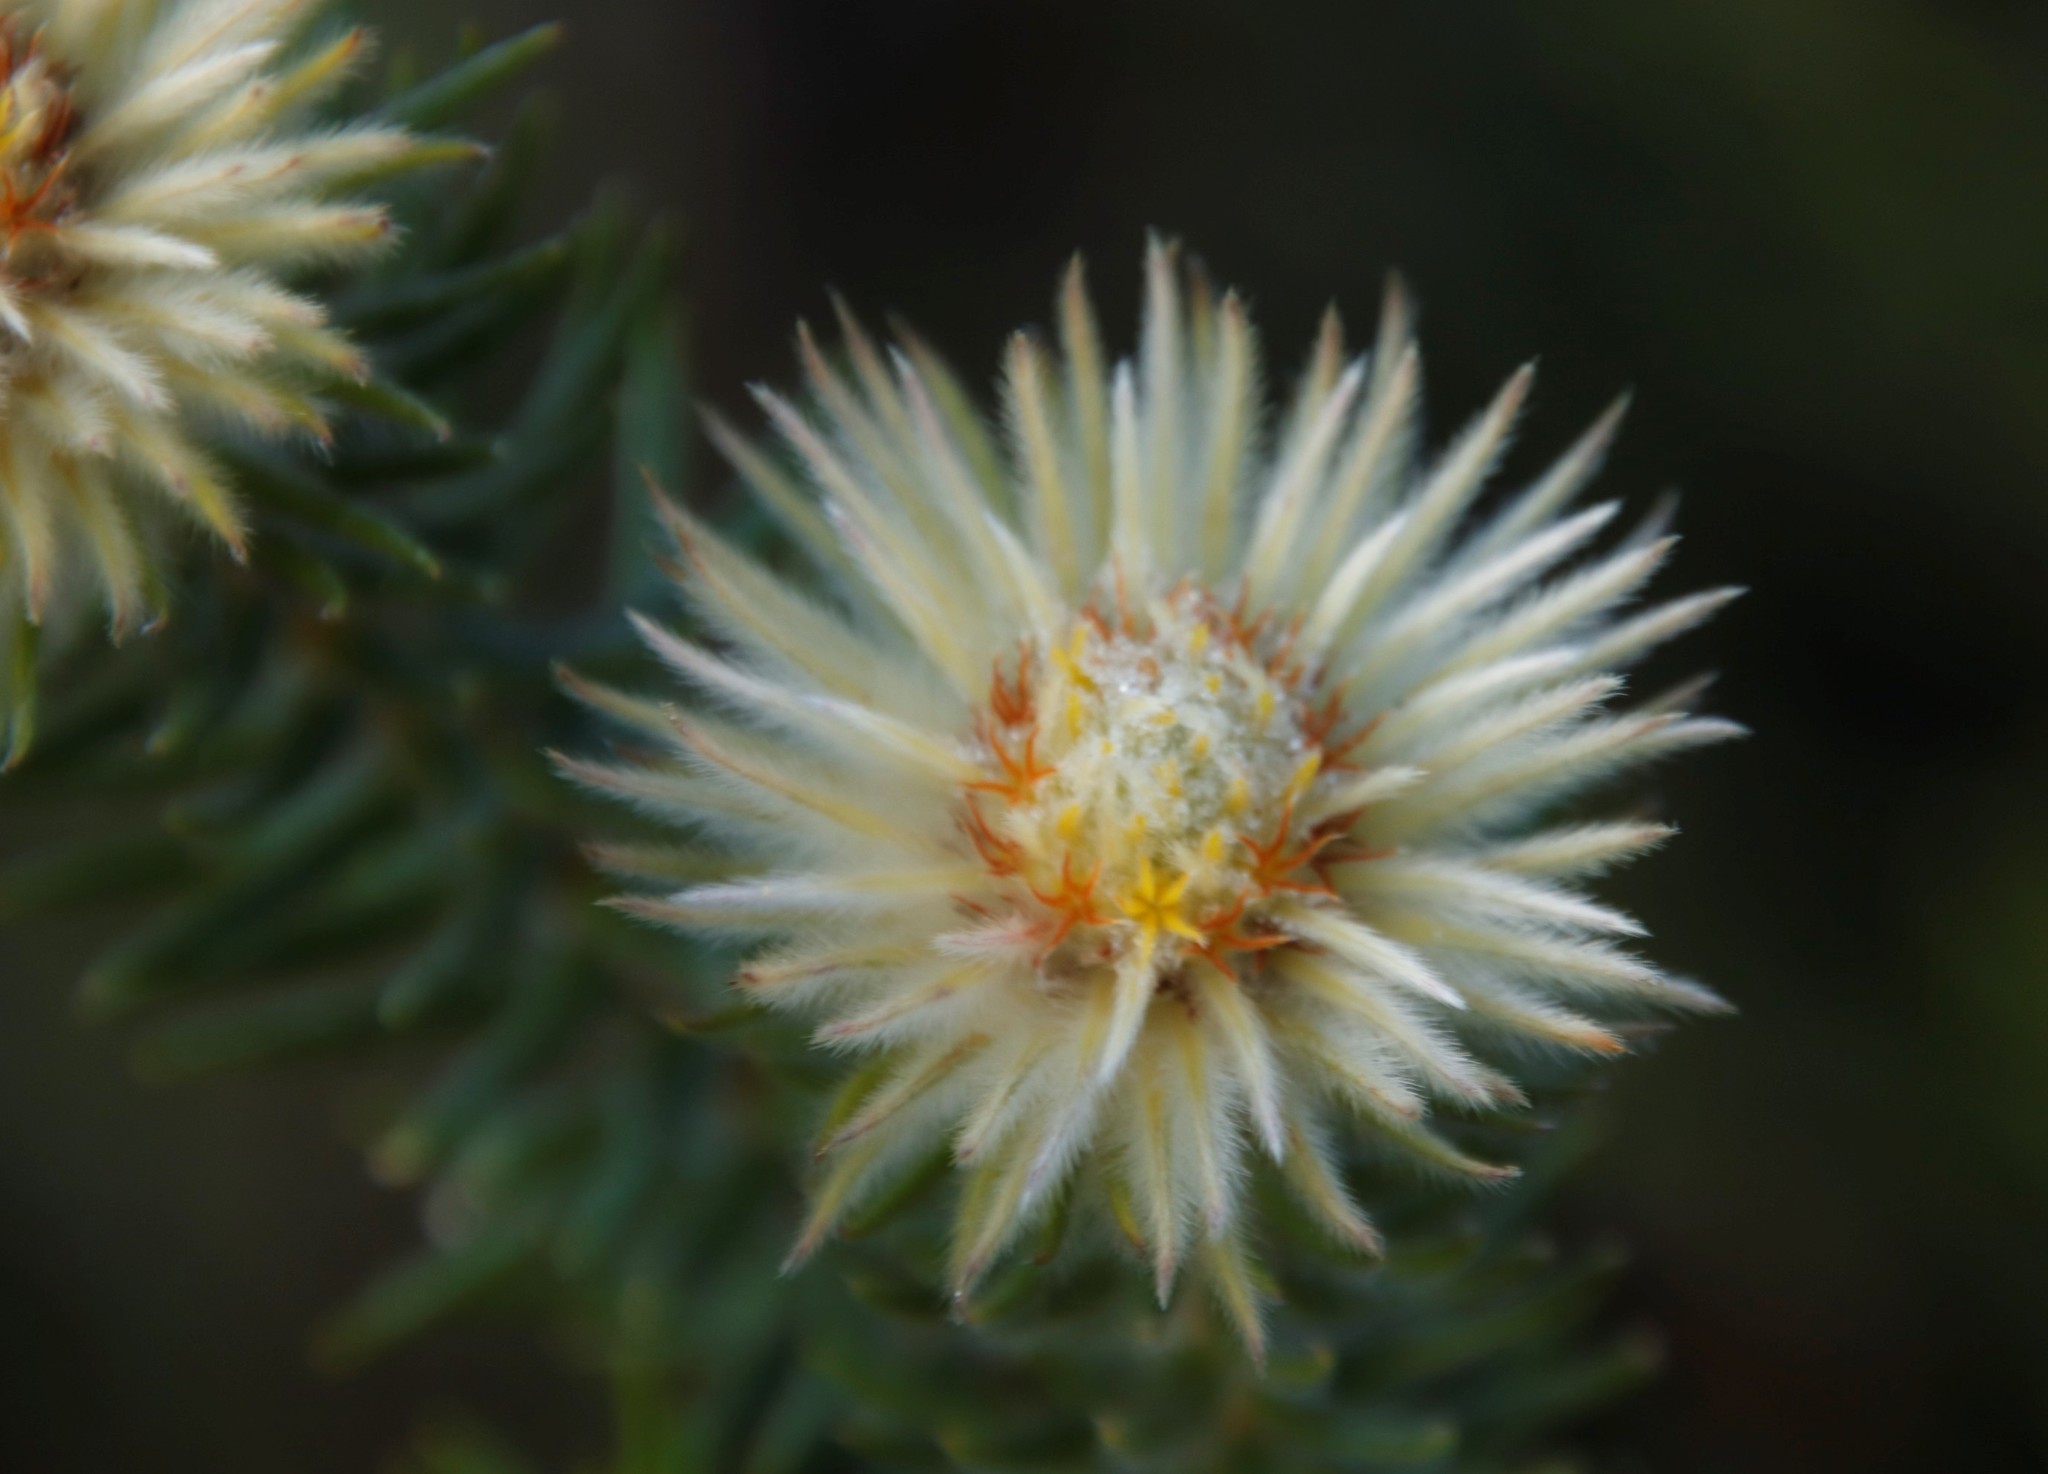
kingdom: Plantae
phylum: Tracheophyta
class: Magnoliopsida
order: Rosales
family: Rhamnaceae
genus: Phylica
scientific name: Phylica pubescens
